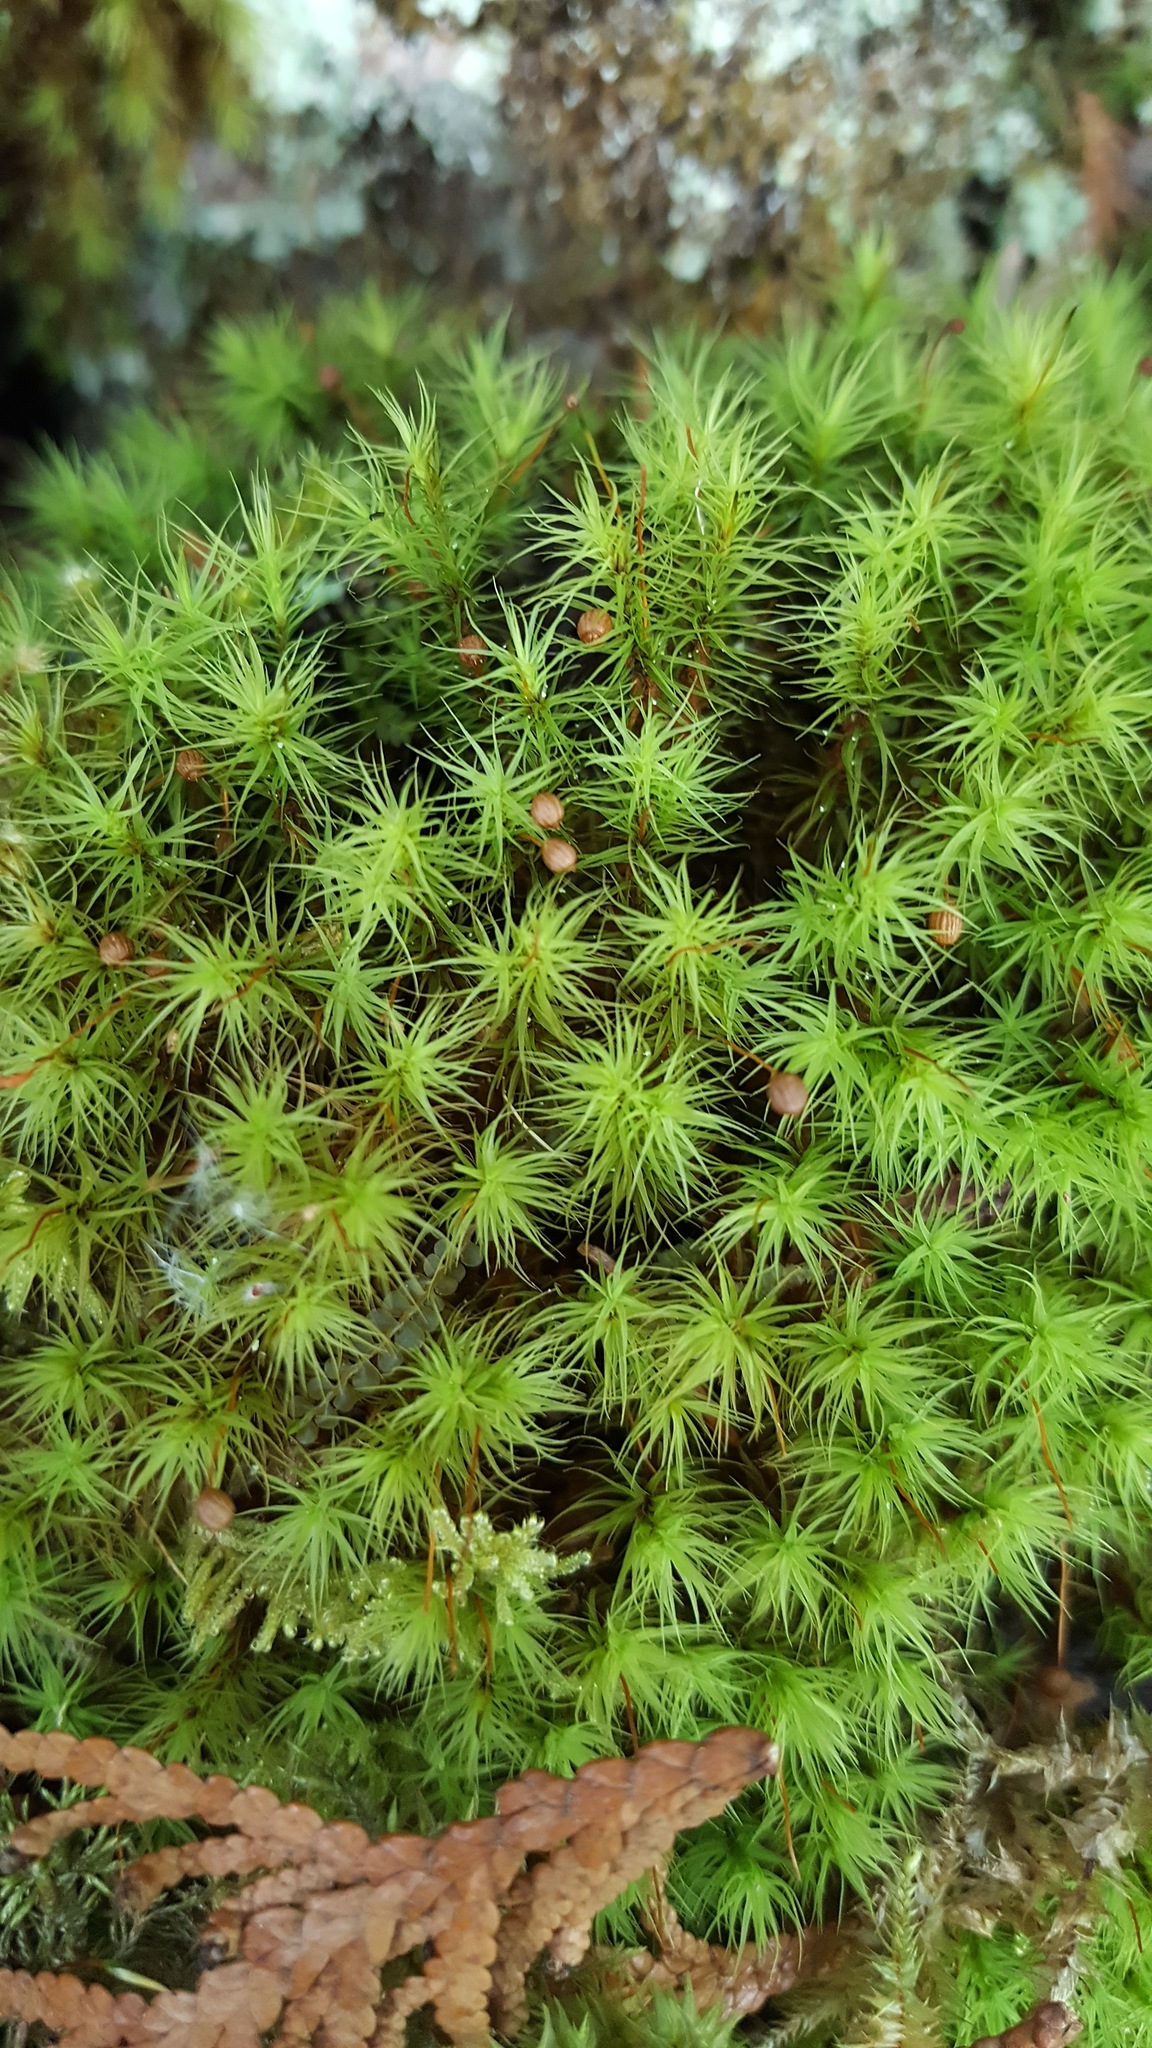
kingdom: Plantae
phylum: Bryophyta
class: Bryopsida
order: Bartramiales
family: Bartramiaceae
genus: Bartramia
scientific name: Bartramia ithyphylla
